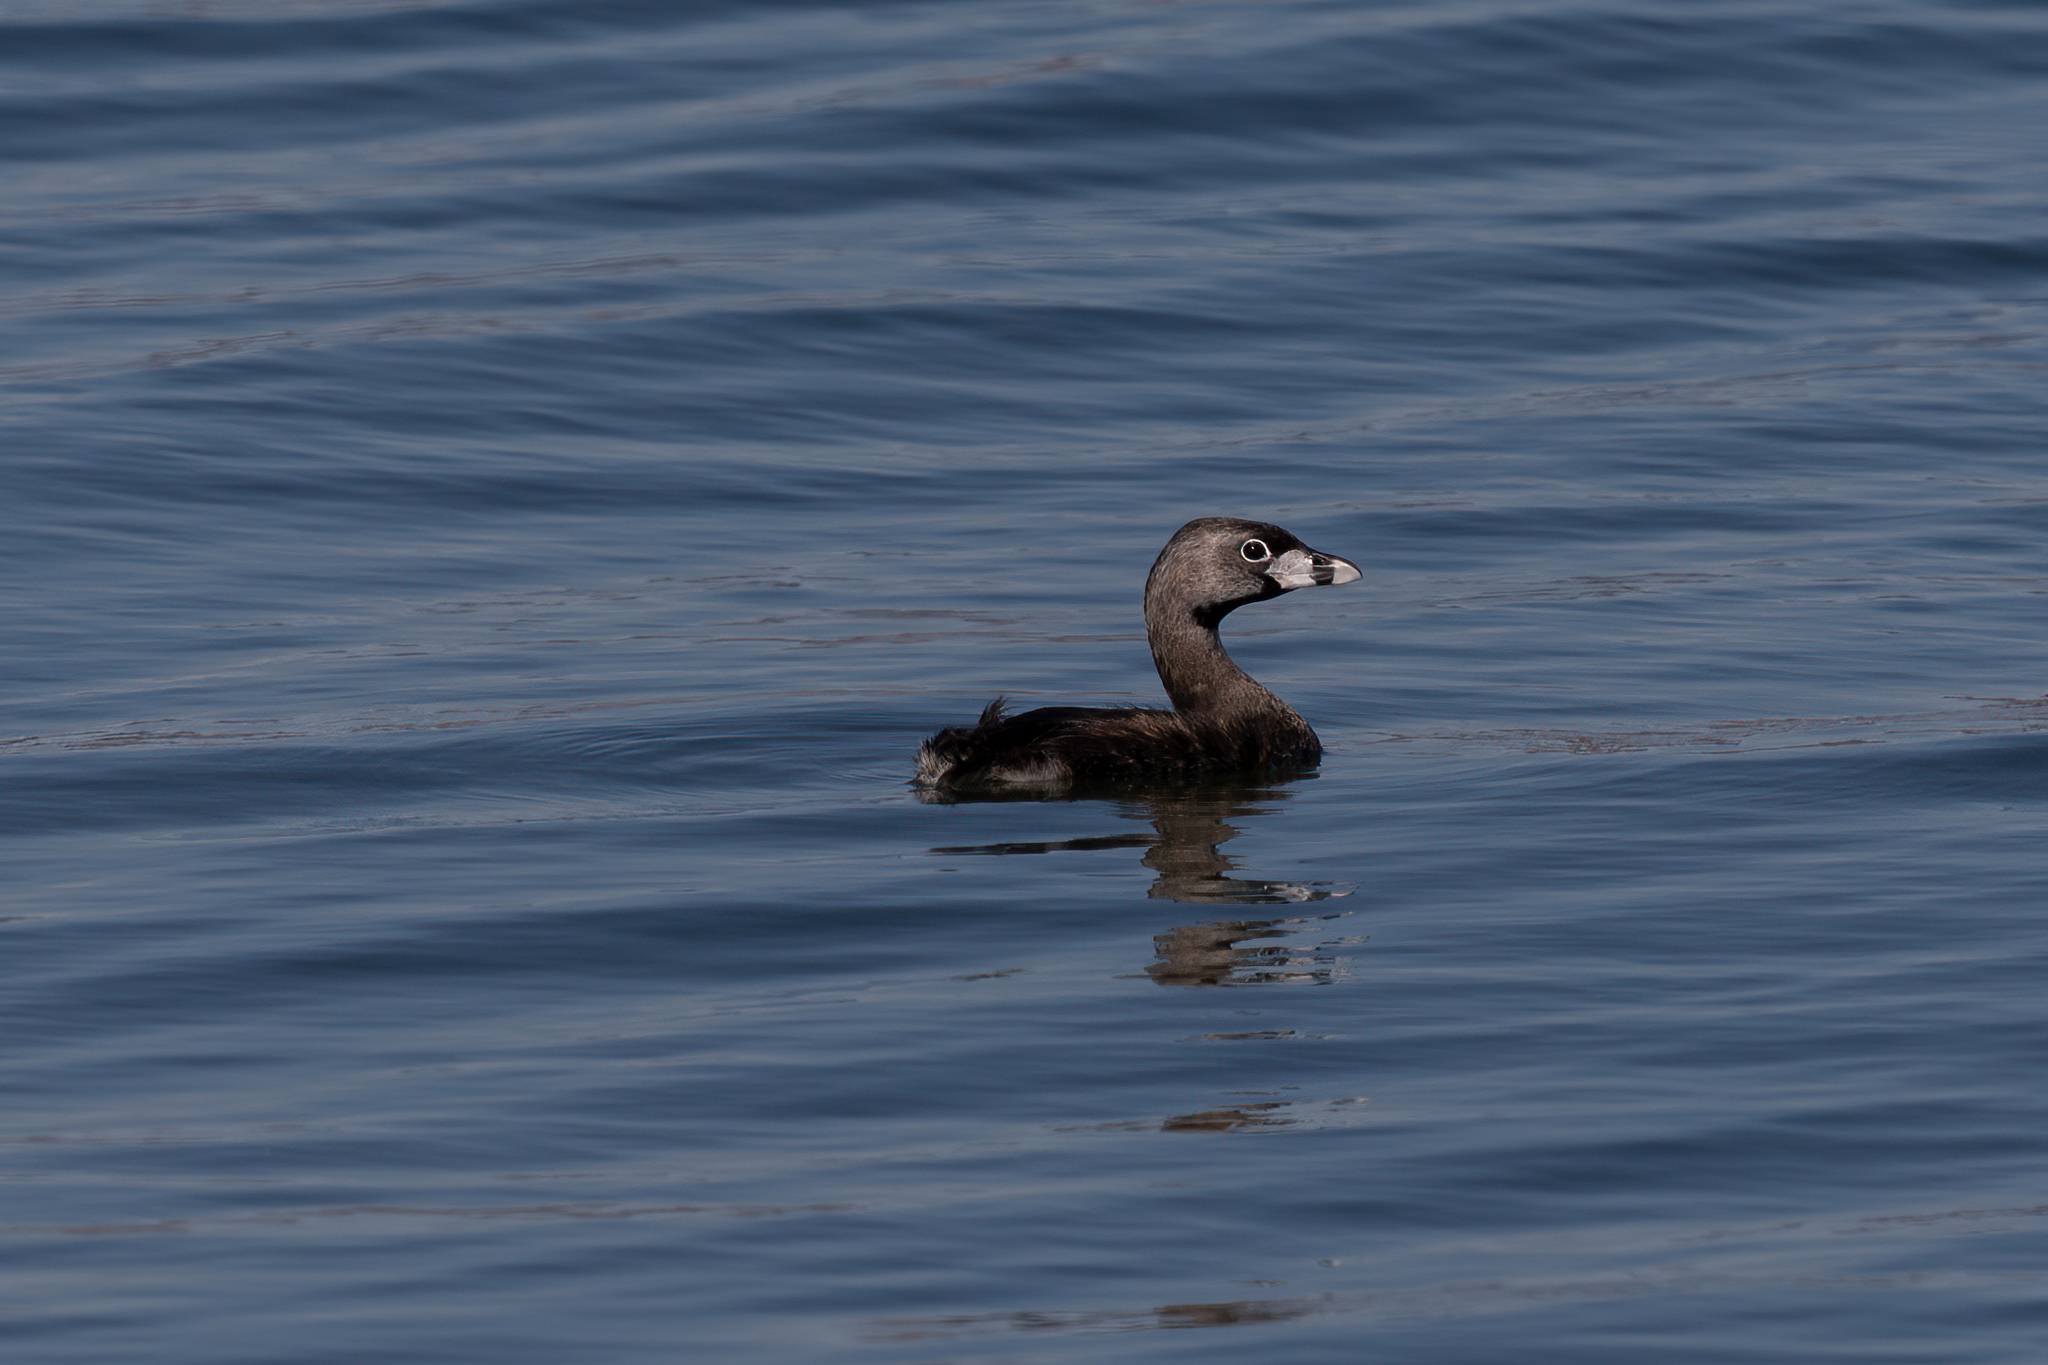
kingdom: Animalia
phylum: Chordata
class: Aves
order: Podicipediformes
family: Podicipedidae
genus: Podilymbus
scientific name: Podilymbus podiceps
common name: Pied-billed grebe
